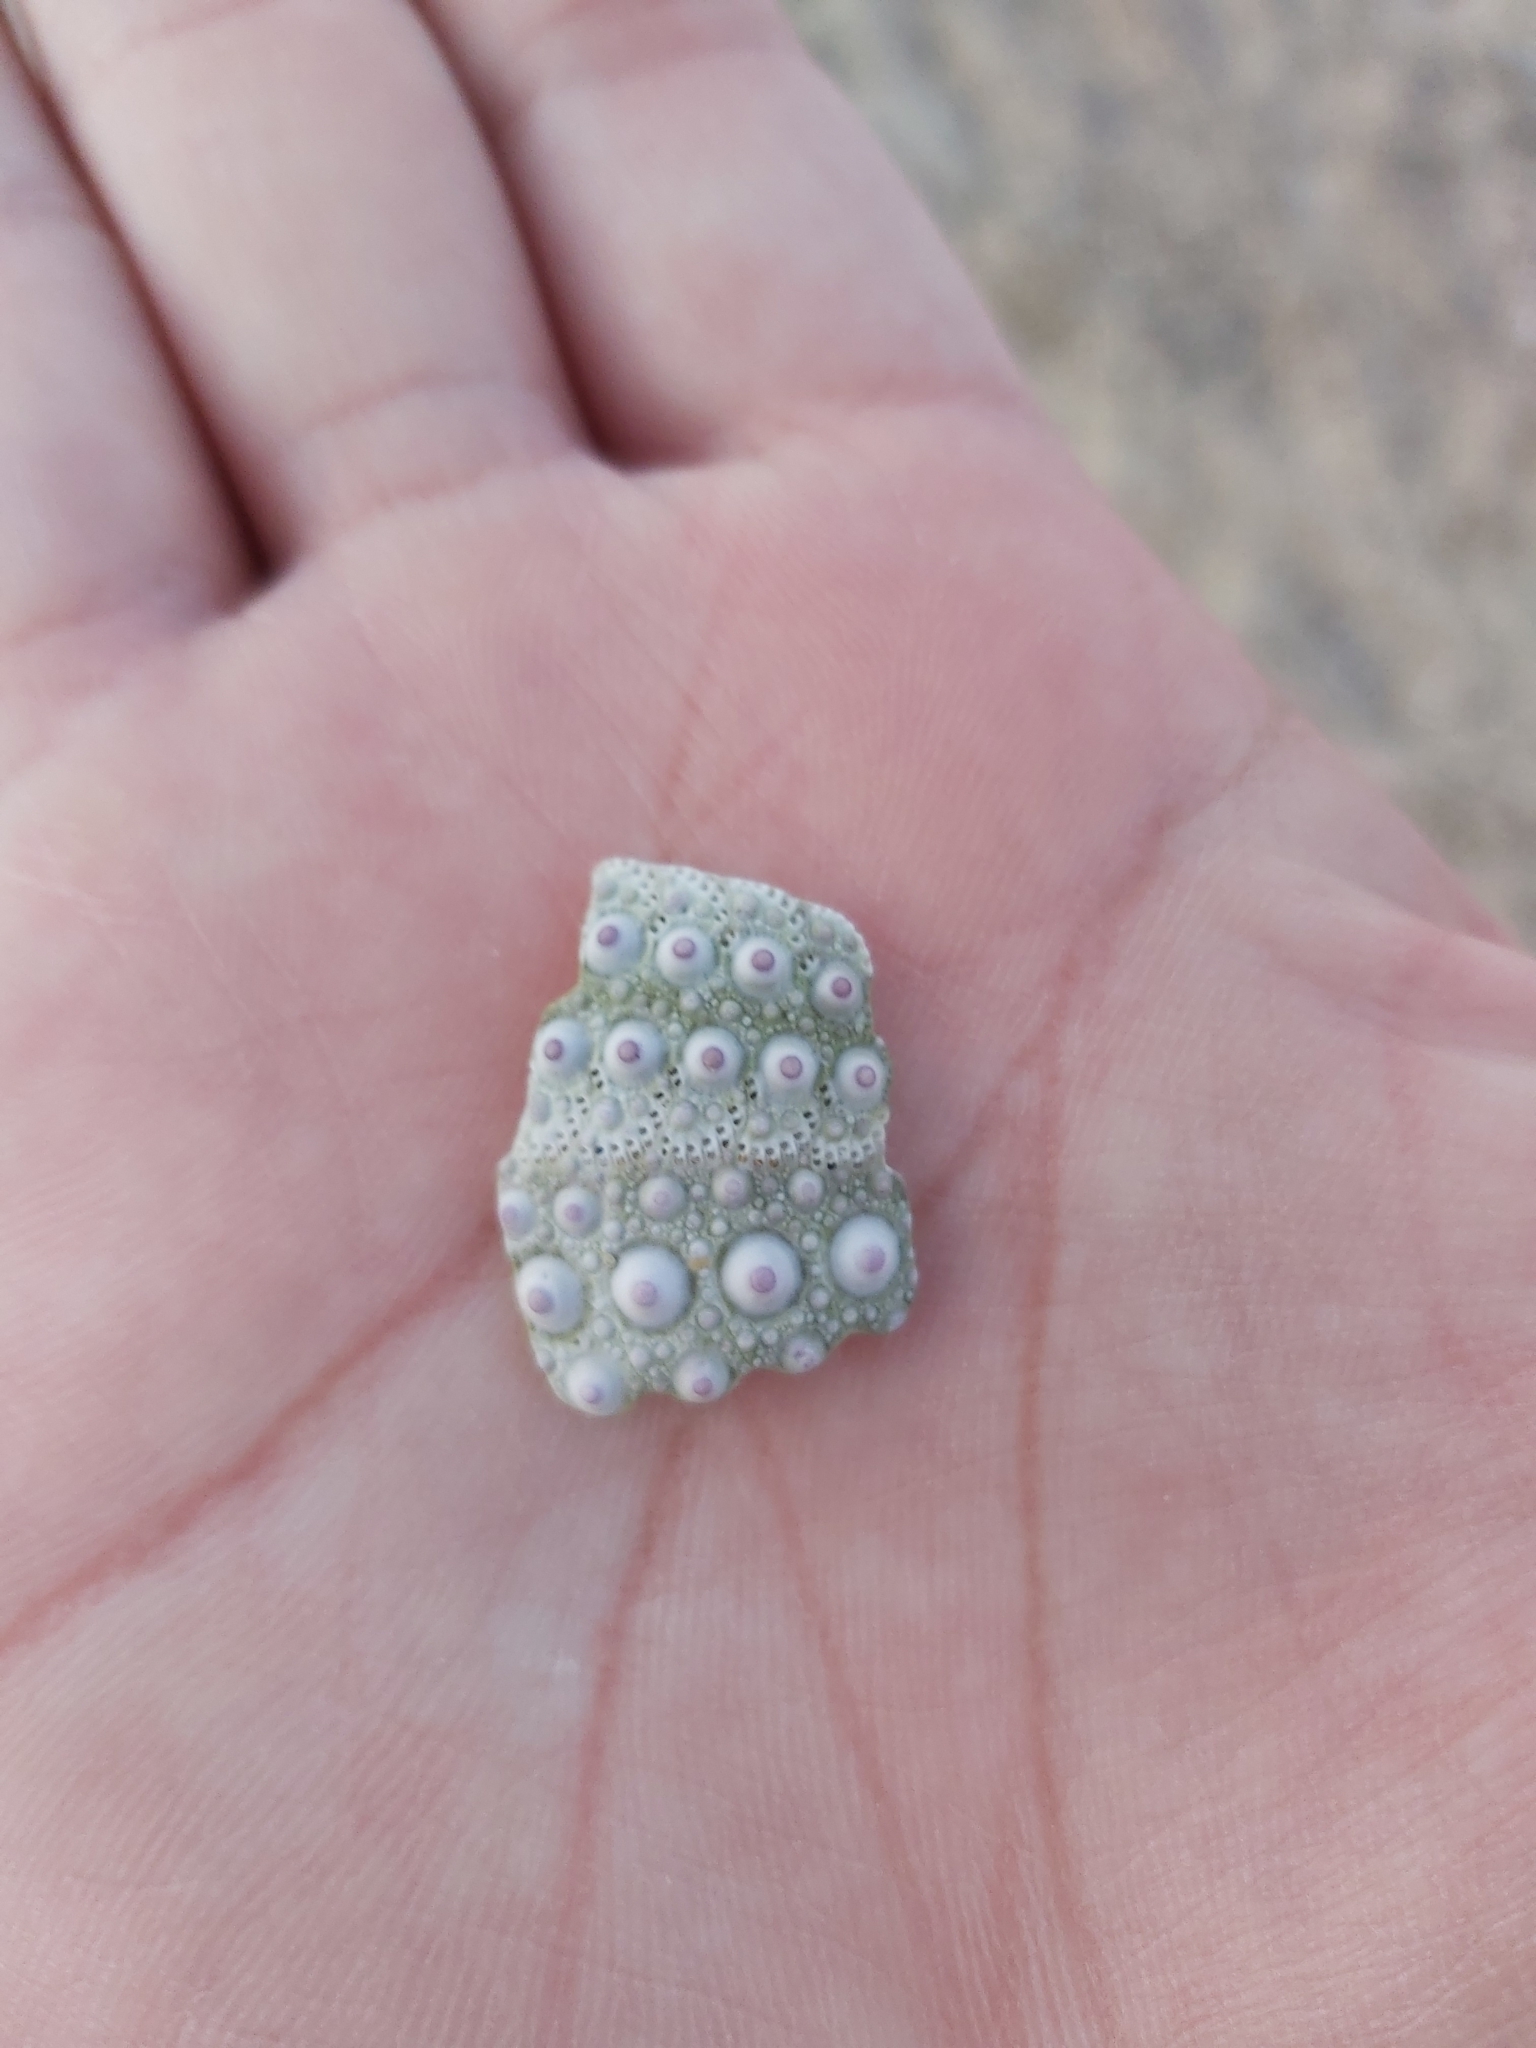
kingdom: Animalia
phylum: Echinodermata
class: Echinoidea
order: Camarodonta
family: Echinometridae
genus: Heliocidaris
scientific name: Heliocidaris erythrogramma
